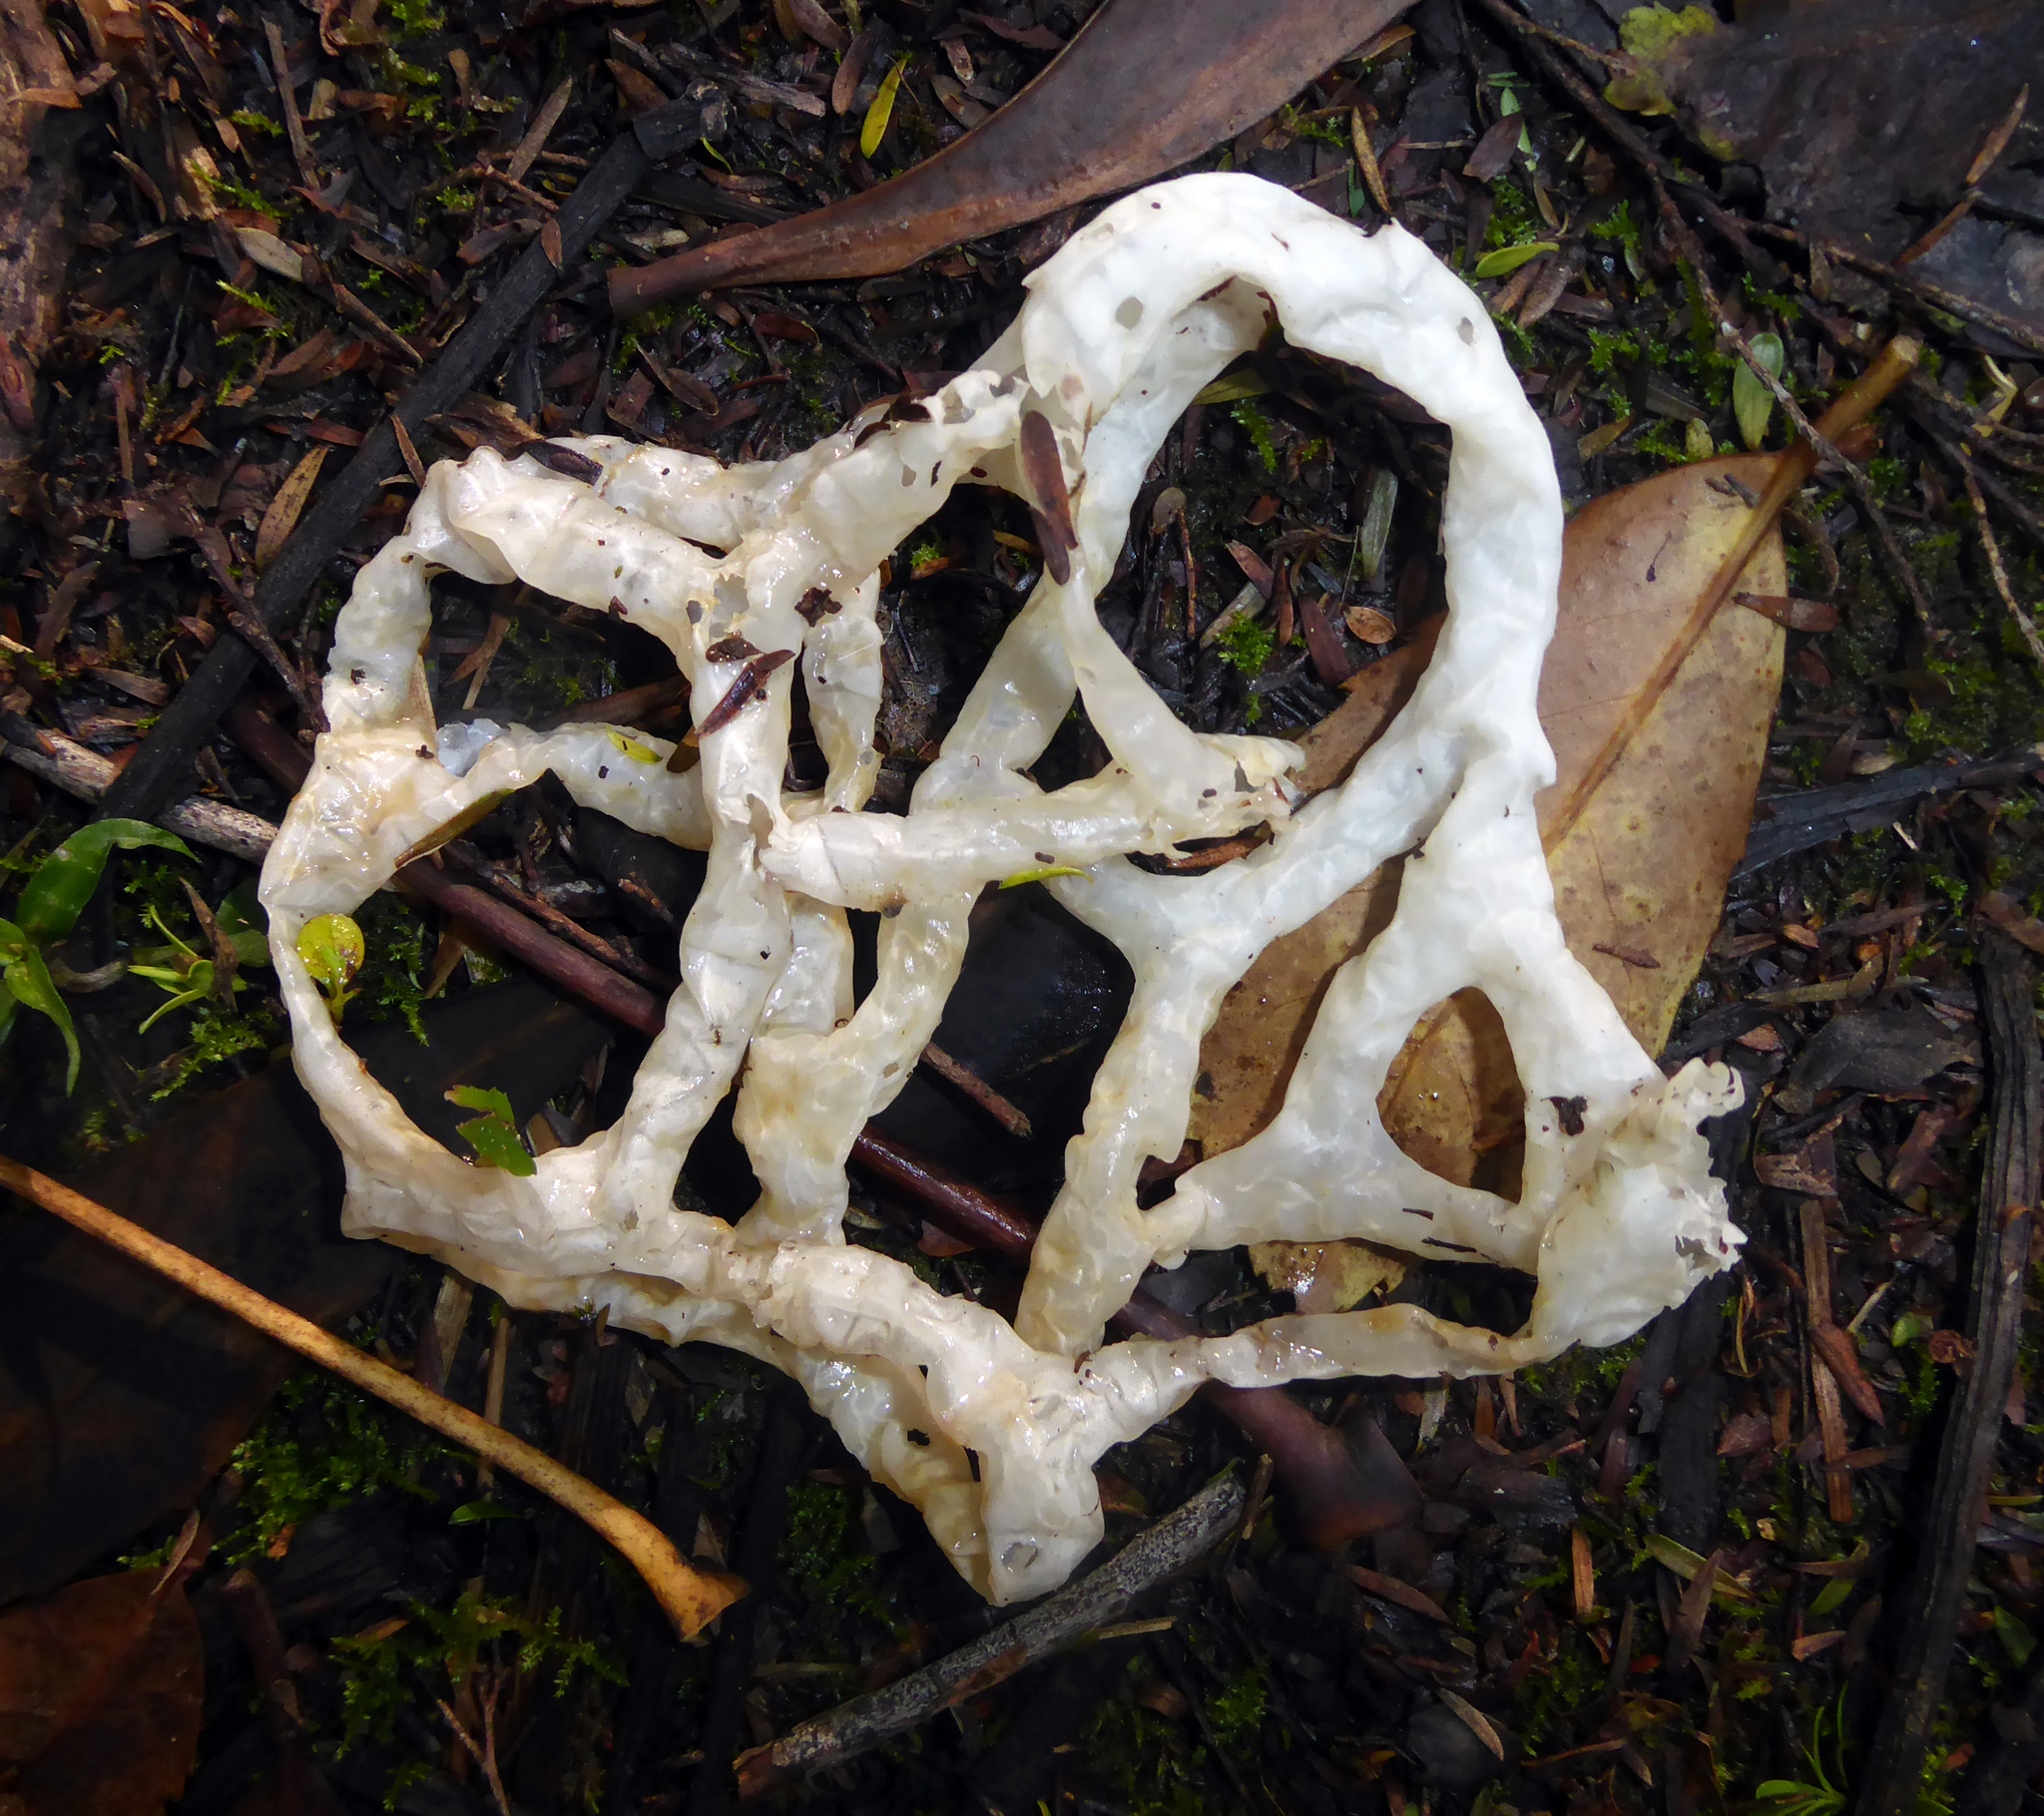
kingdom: Fungi
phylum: Basidiomycota
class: Agaricomycetes
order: Phallales
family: Phallaceae
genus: Ileodictyon
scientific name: Ileodictyon cibarium
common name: Basket fungus
